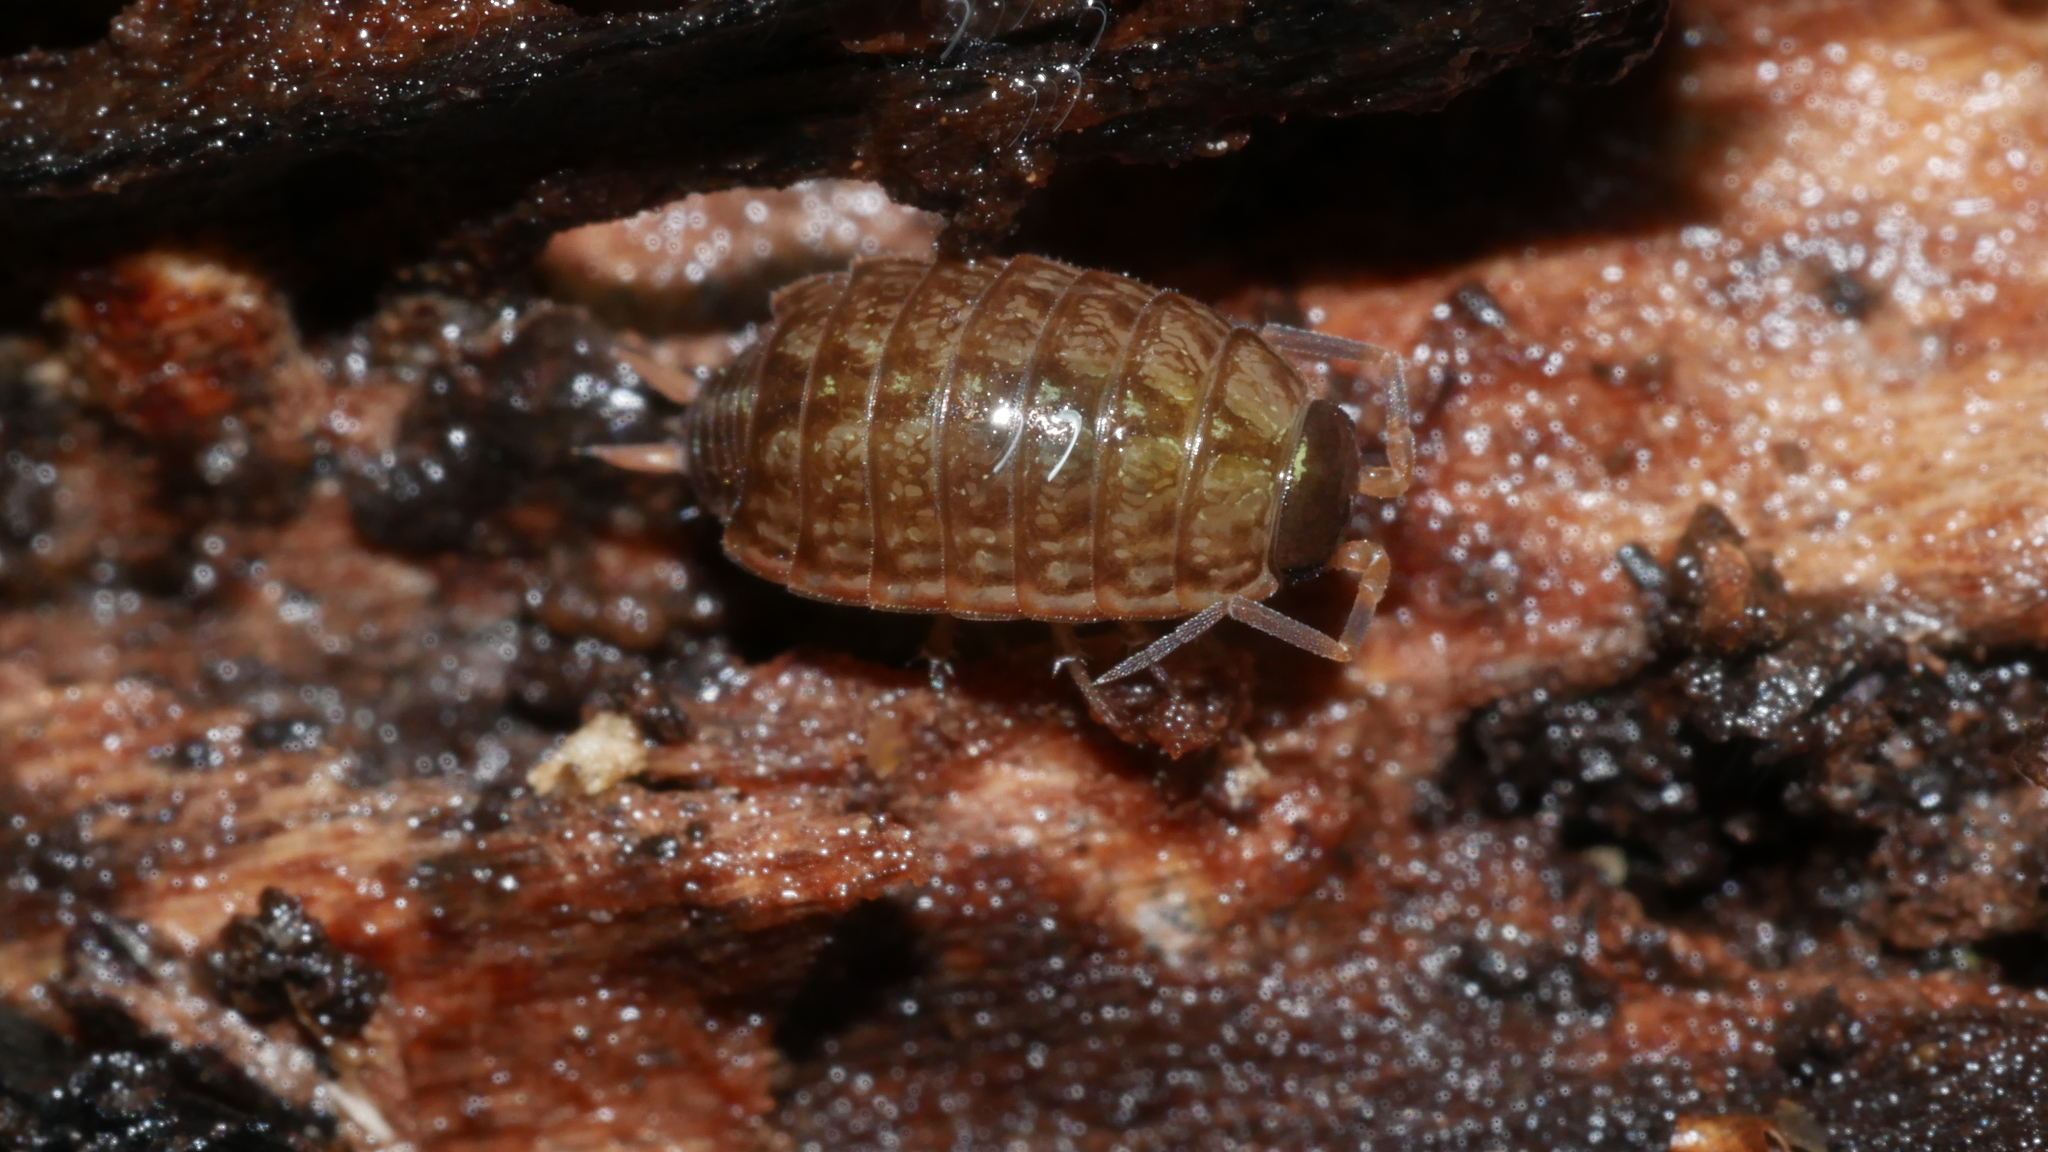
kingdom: Animalia
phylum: Arthropoda
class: Malacostraca
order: Isopoda
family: Philosciidae
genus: Philoscia
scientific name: Philoscia muscorum
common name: Common striped woodlouse
